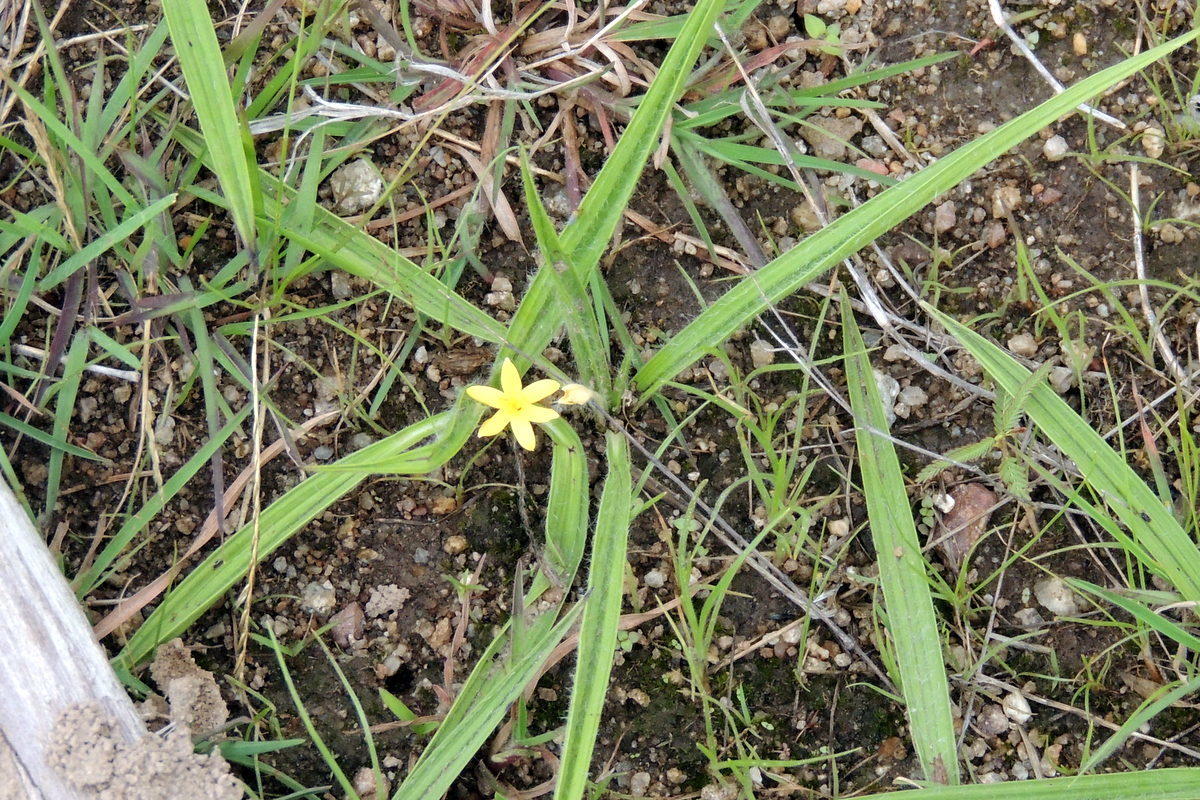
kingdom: Plantae
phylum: Tracheophyta
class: Liliopsida
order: Asparagales
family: Hypoxidaceae
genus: Curculigo
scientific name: Curculigo orchioides
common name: Golden eye-grass
